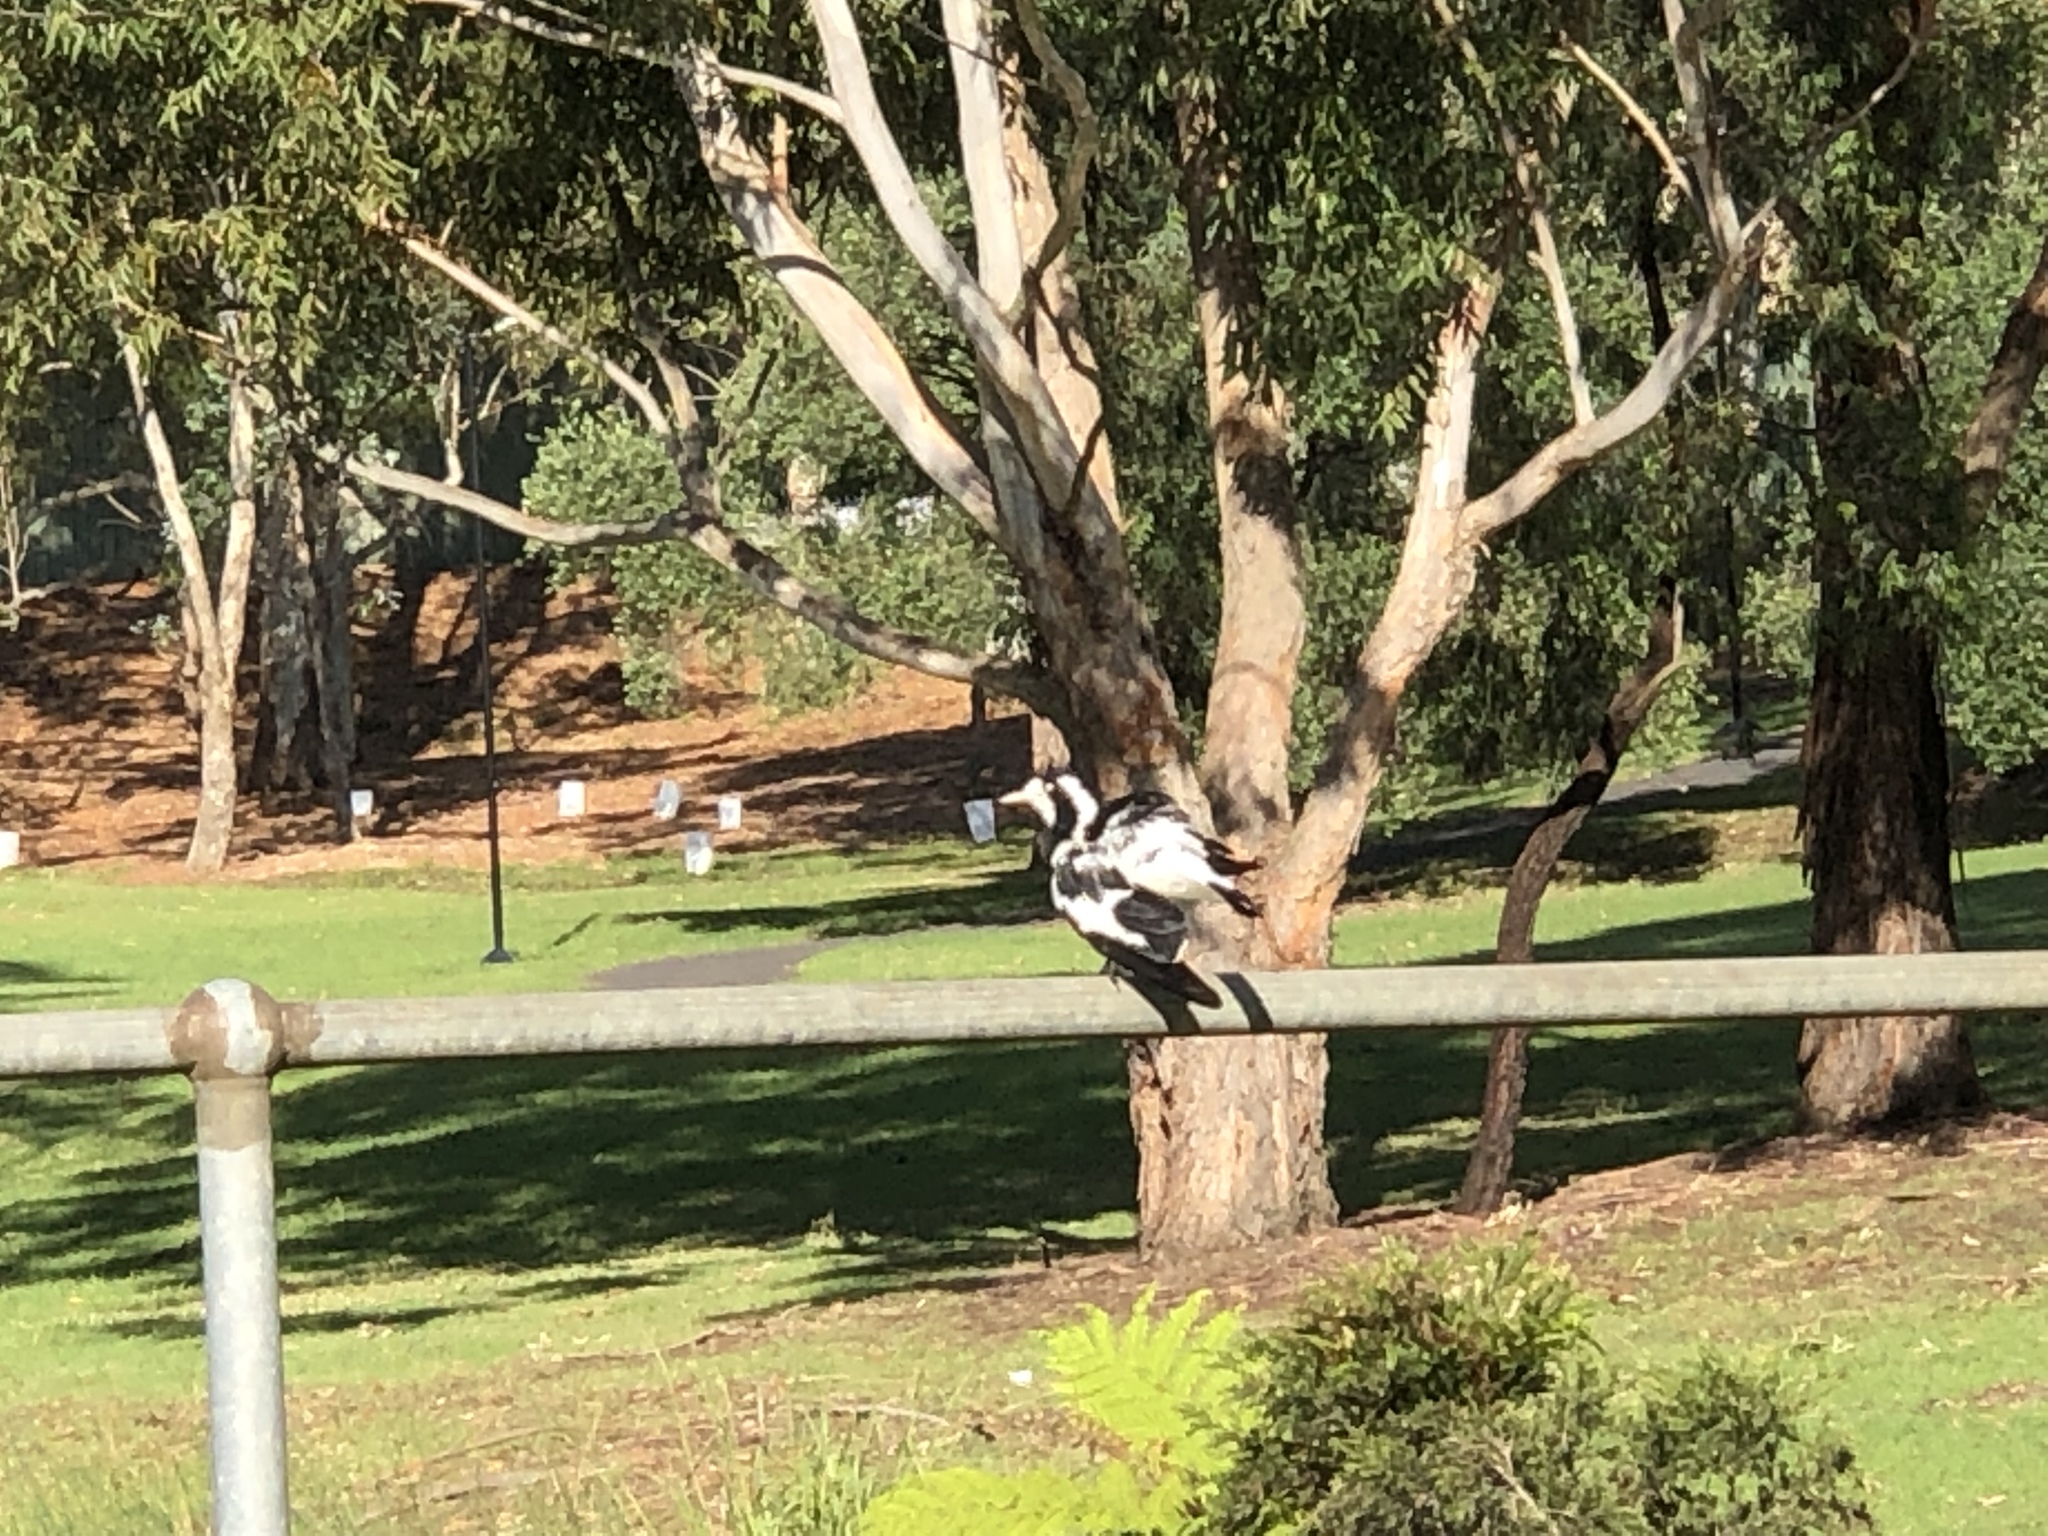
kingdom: Animalia
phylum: Chordata
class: Aves
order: Passeriformes
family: Monarchidae
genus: Grallina
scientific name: Grallina cyanoleuca
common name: Magpie-lark
